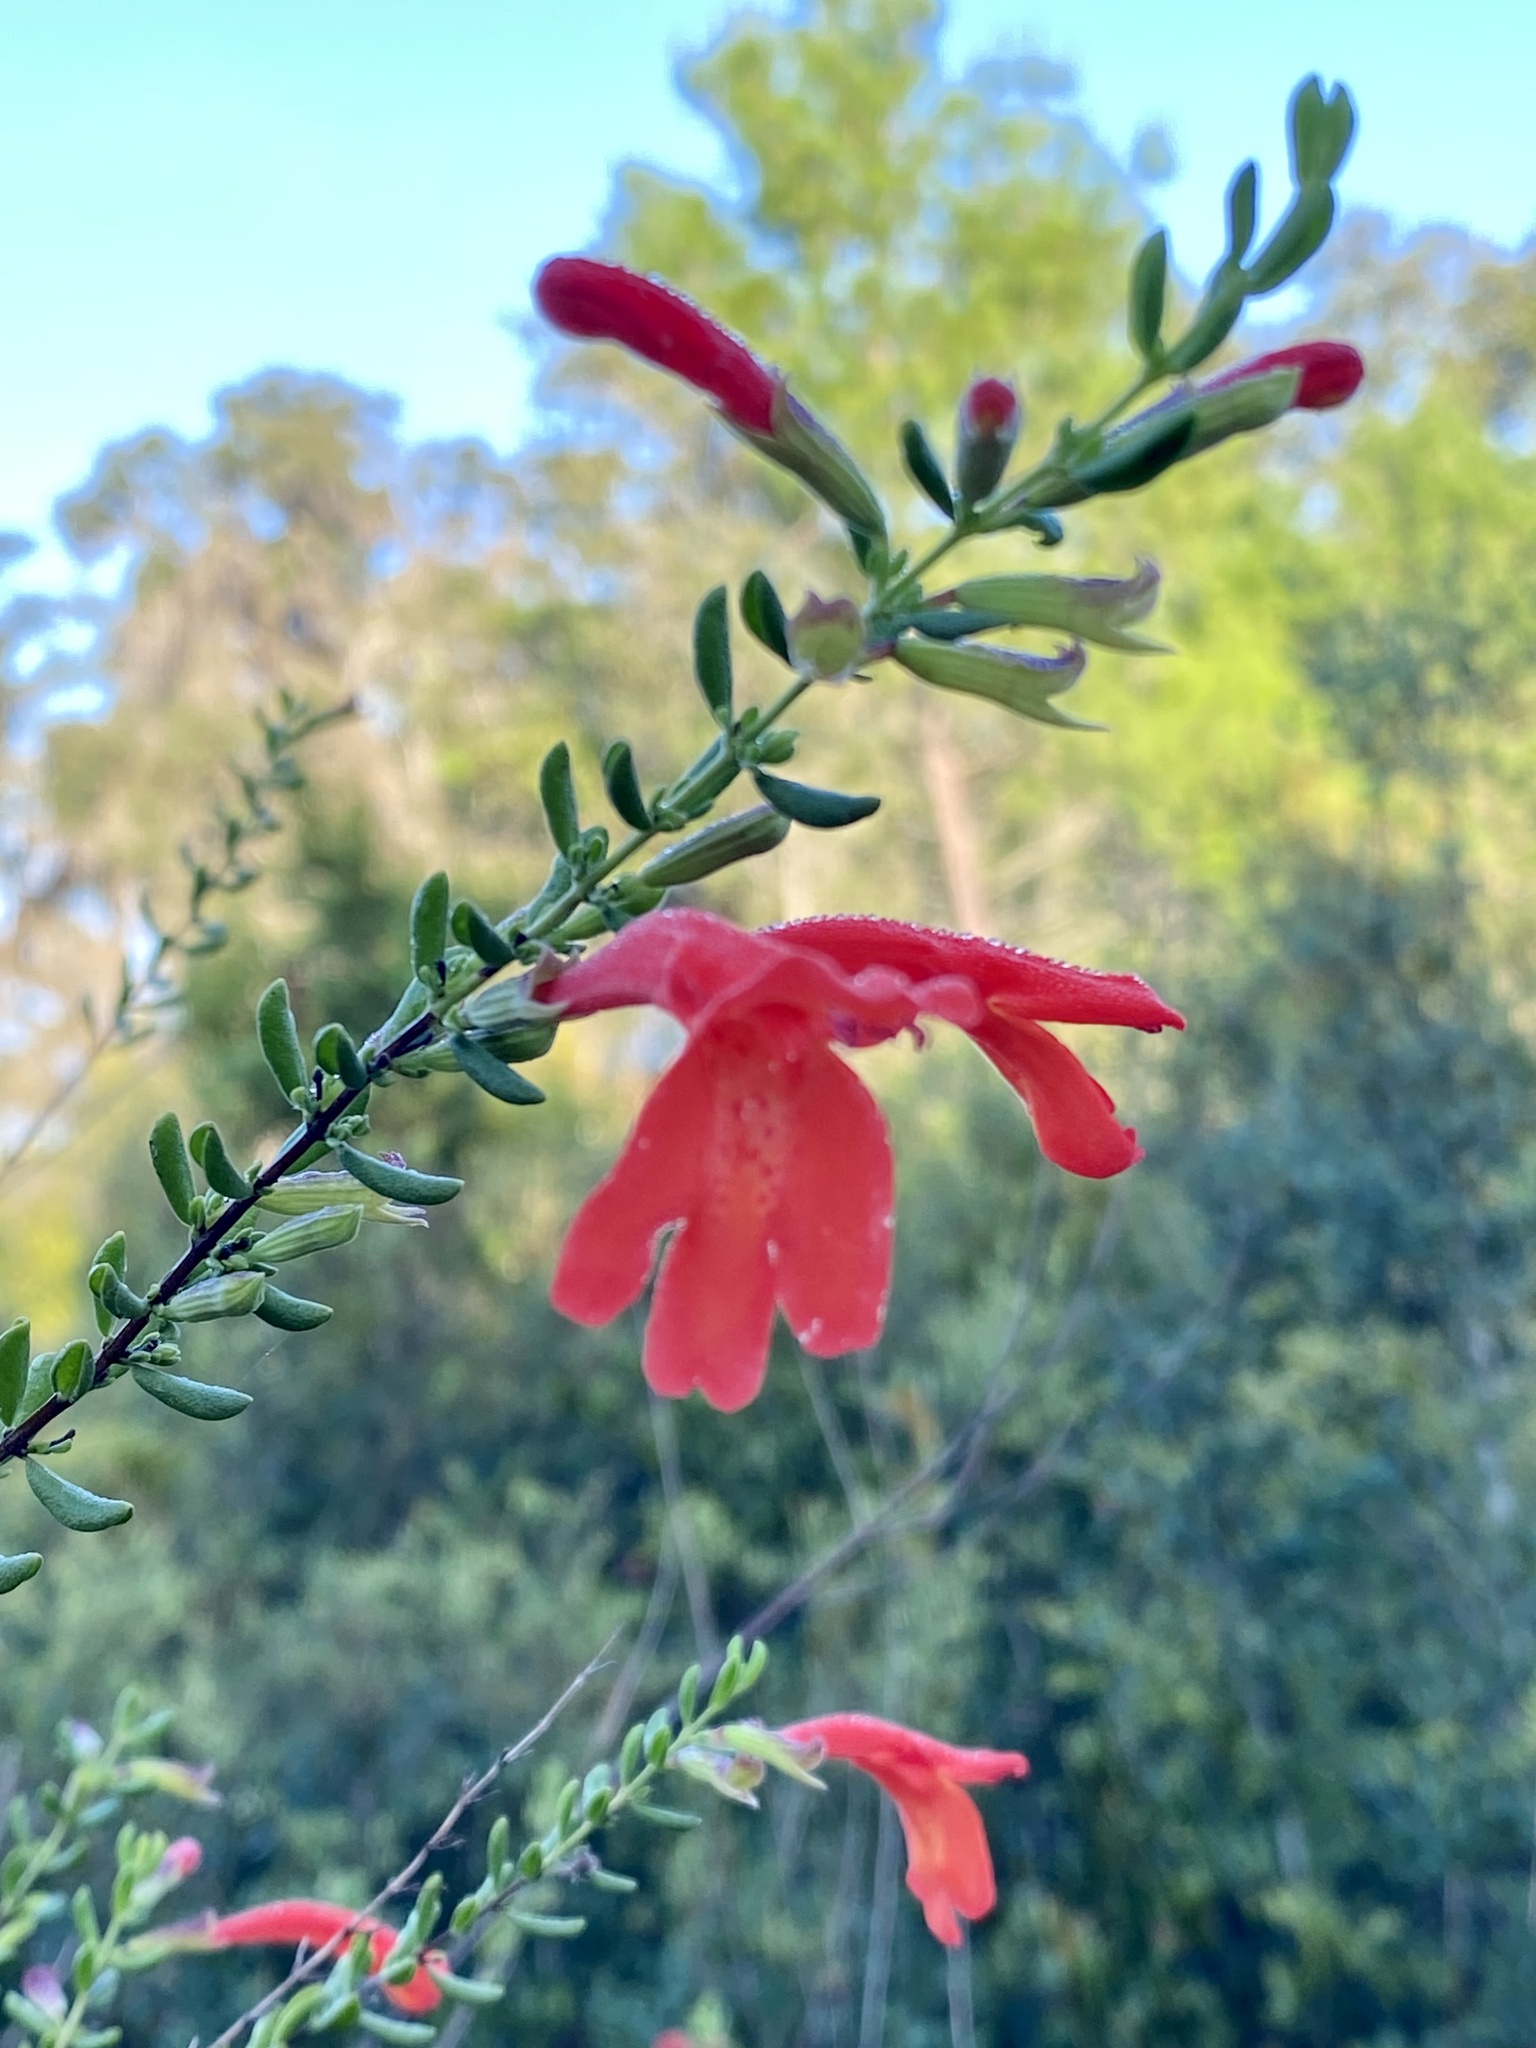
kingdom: Plantae
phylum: Tracheophyta
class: Magnoliopsida
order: Lamiales
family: Lamiaceae
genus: Clinopodium
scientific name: Clinopodium coccineum
